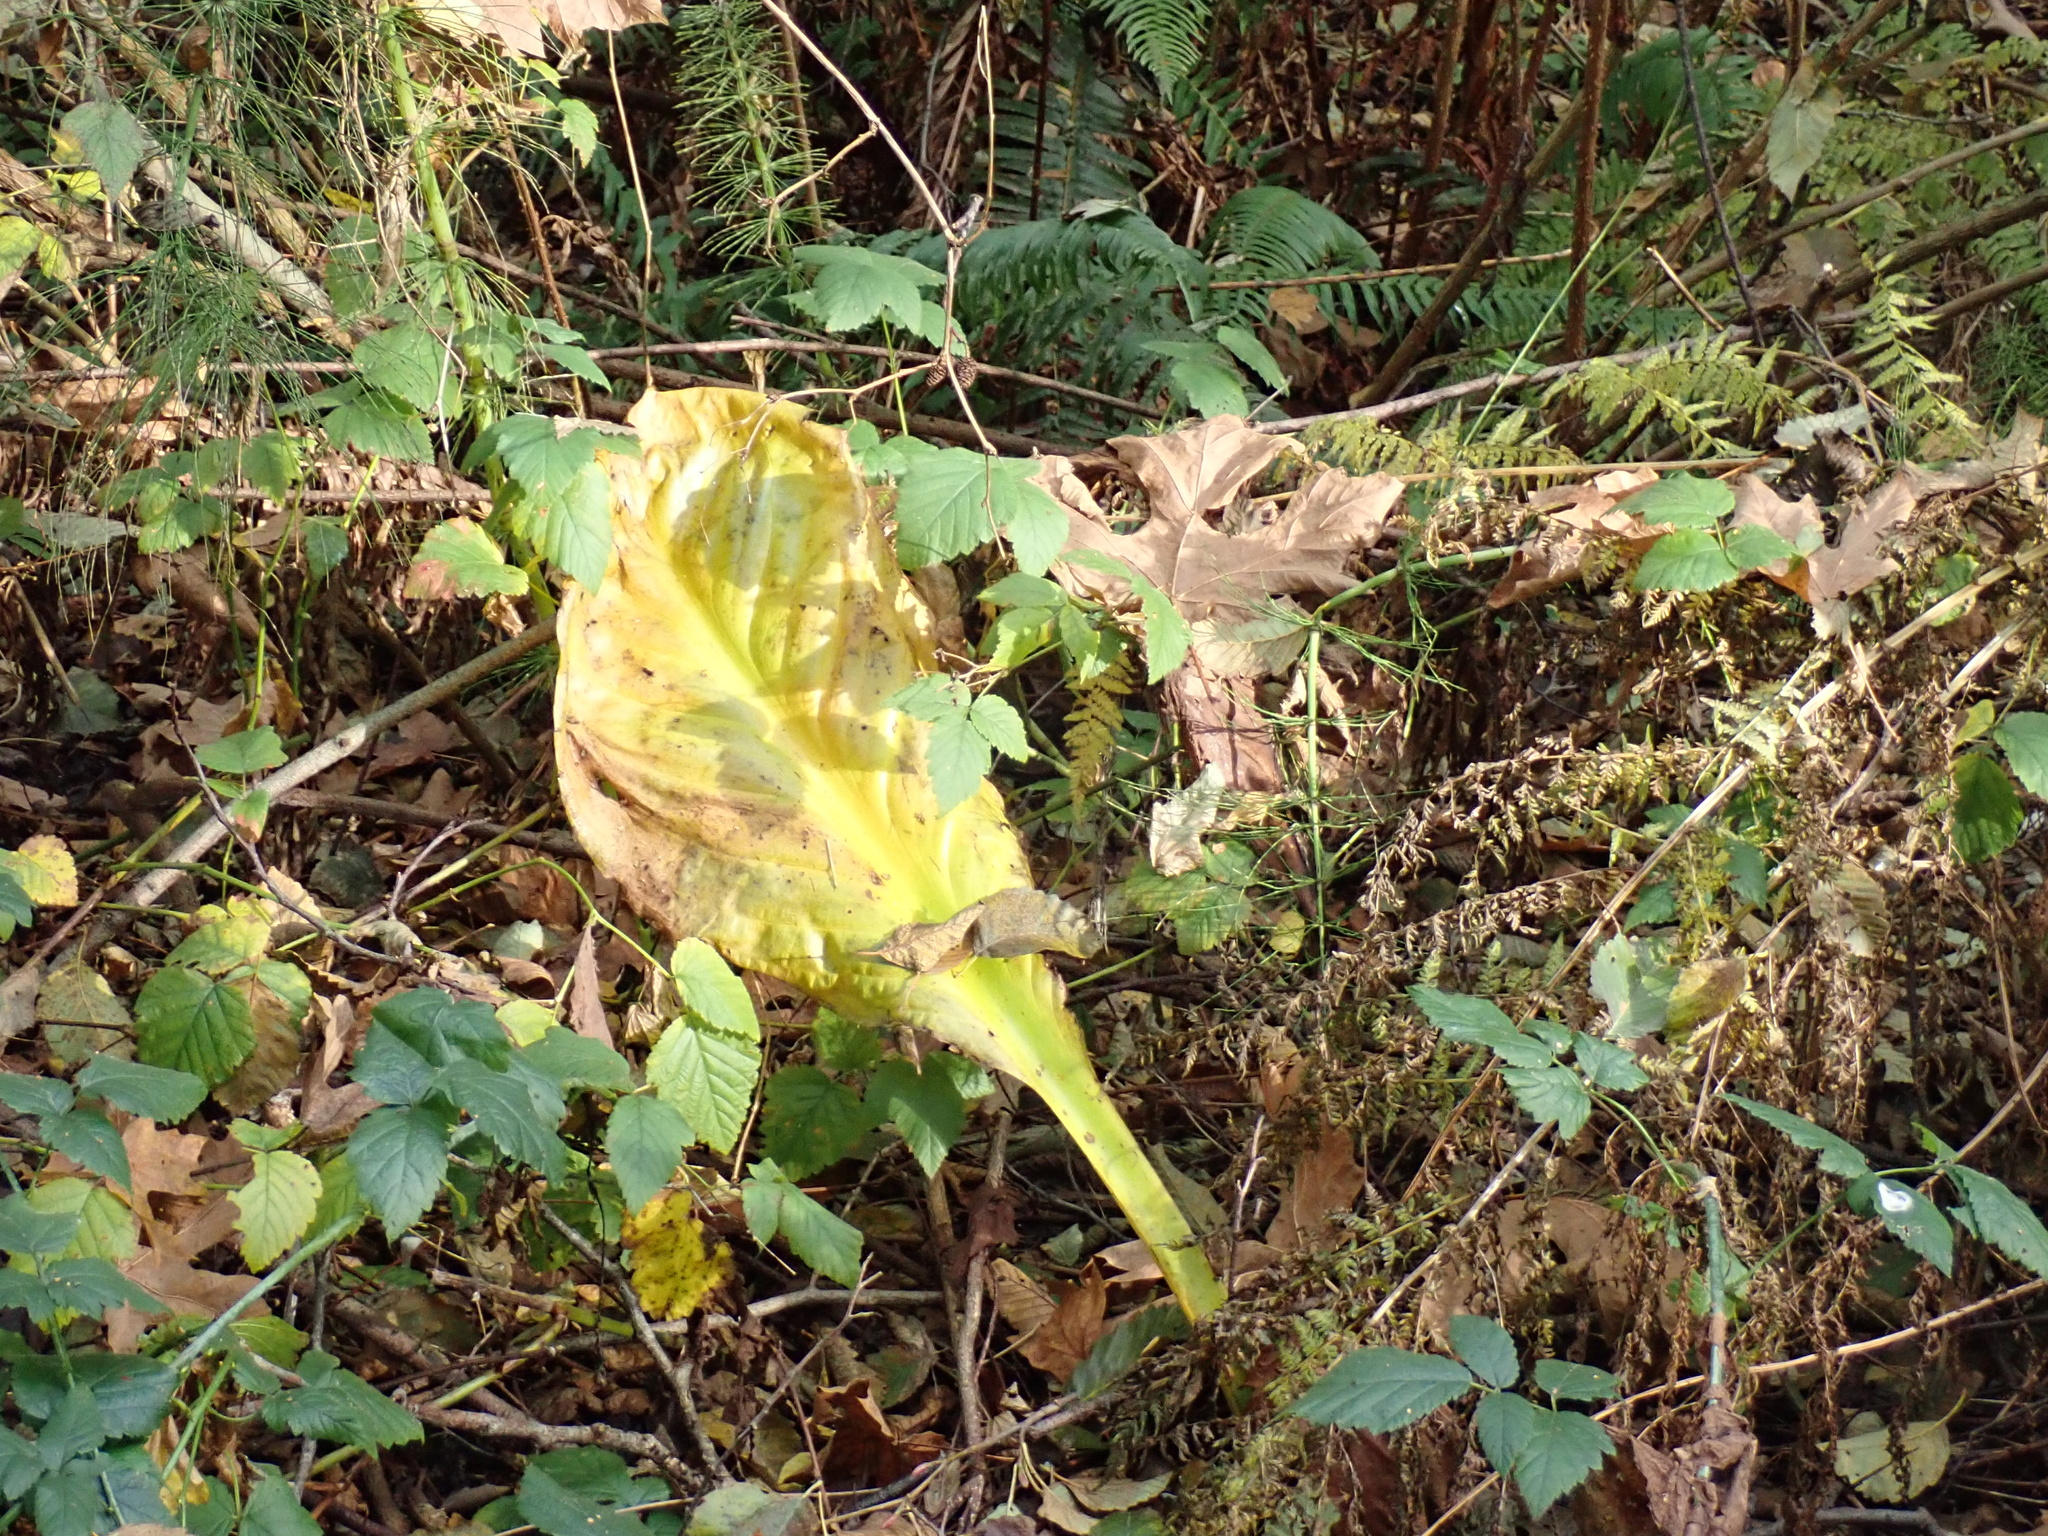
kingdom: Plantae
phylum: Tracheophyta
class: Liliopsida
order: Alismatales
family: Araceae
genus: Lysichiton
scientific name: Lysichiton americanus
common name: American skunk cabbage
